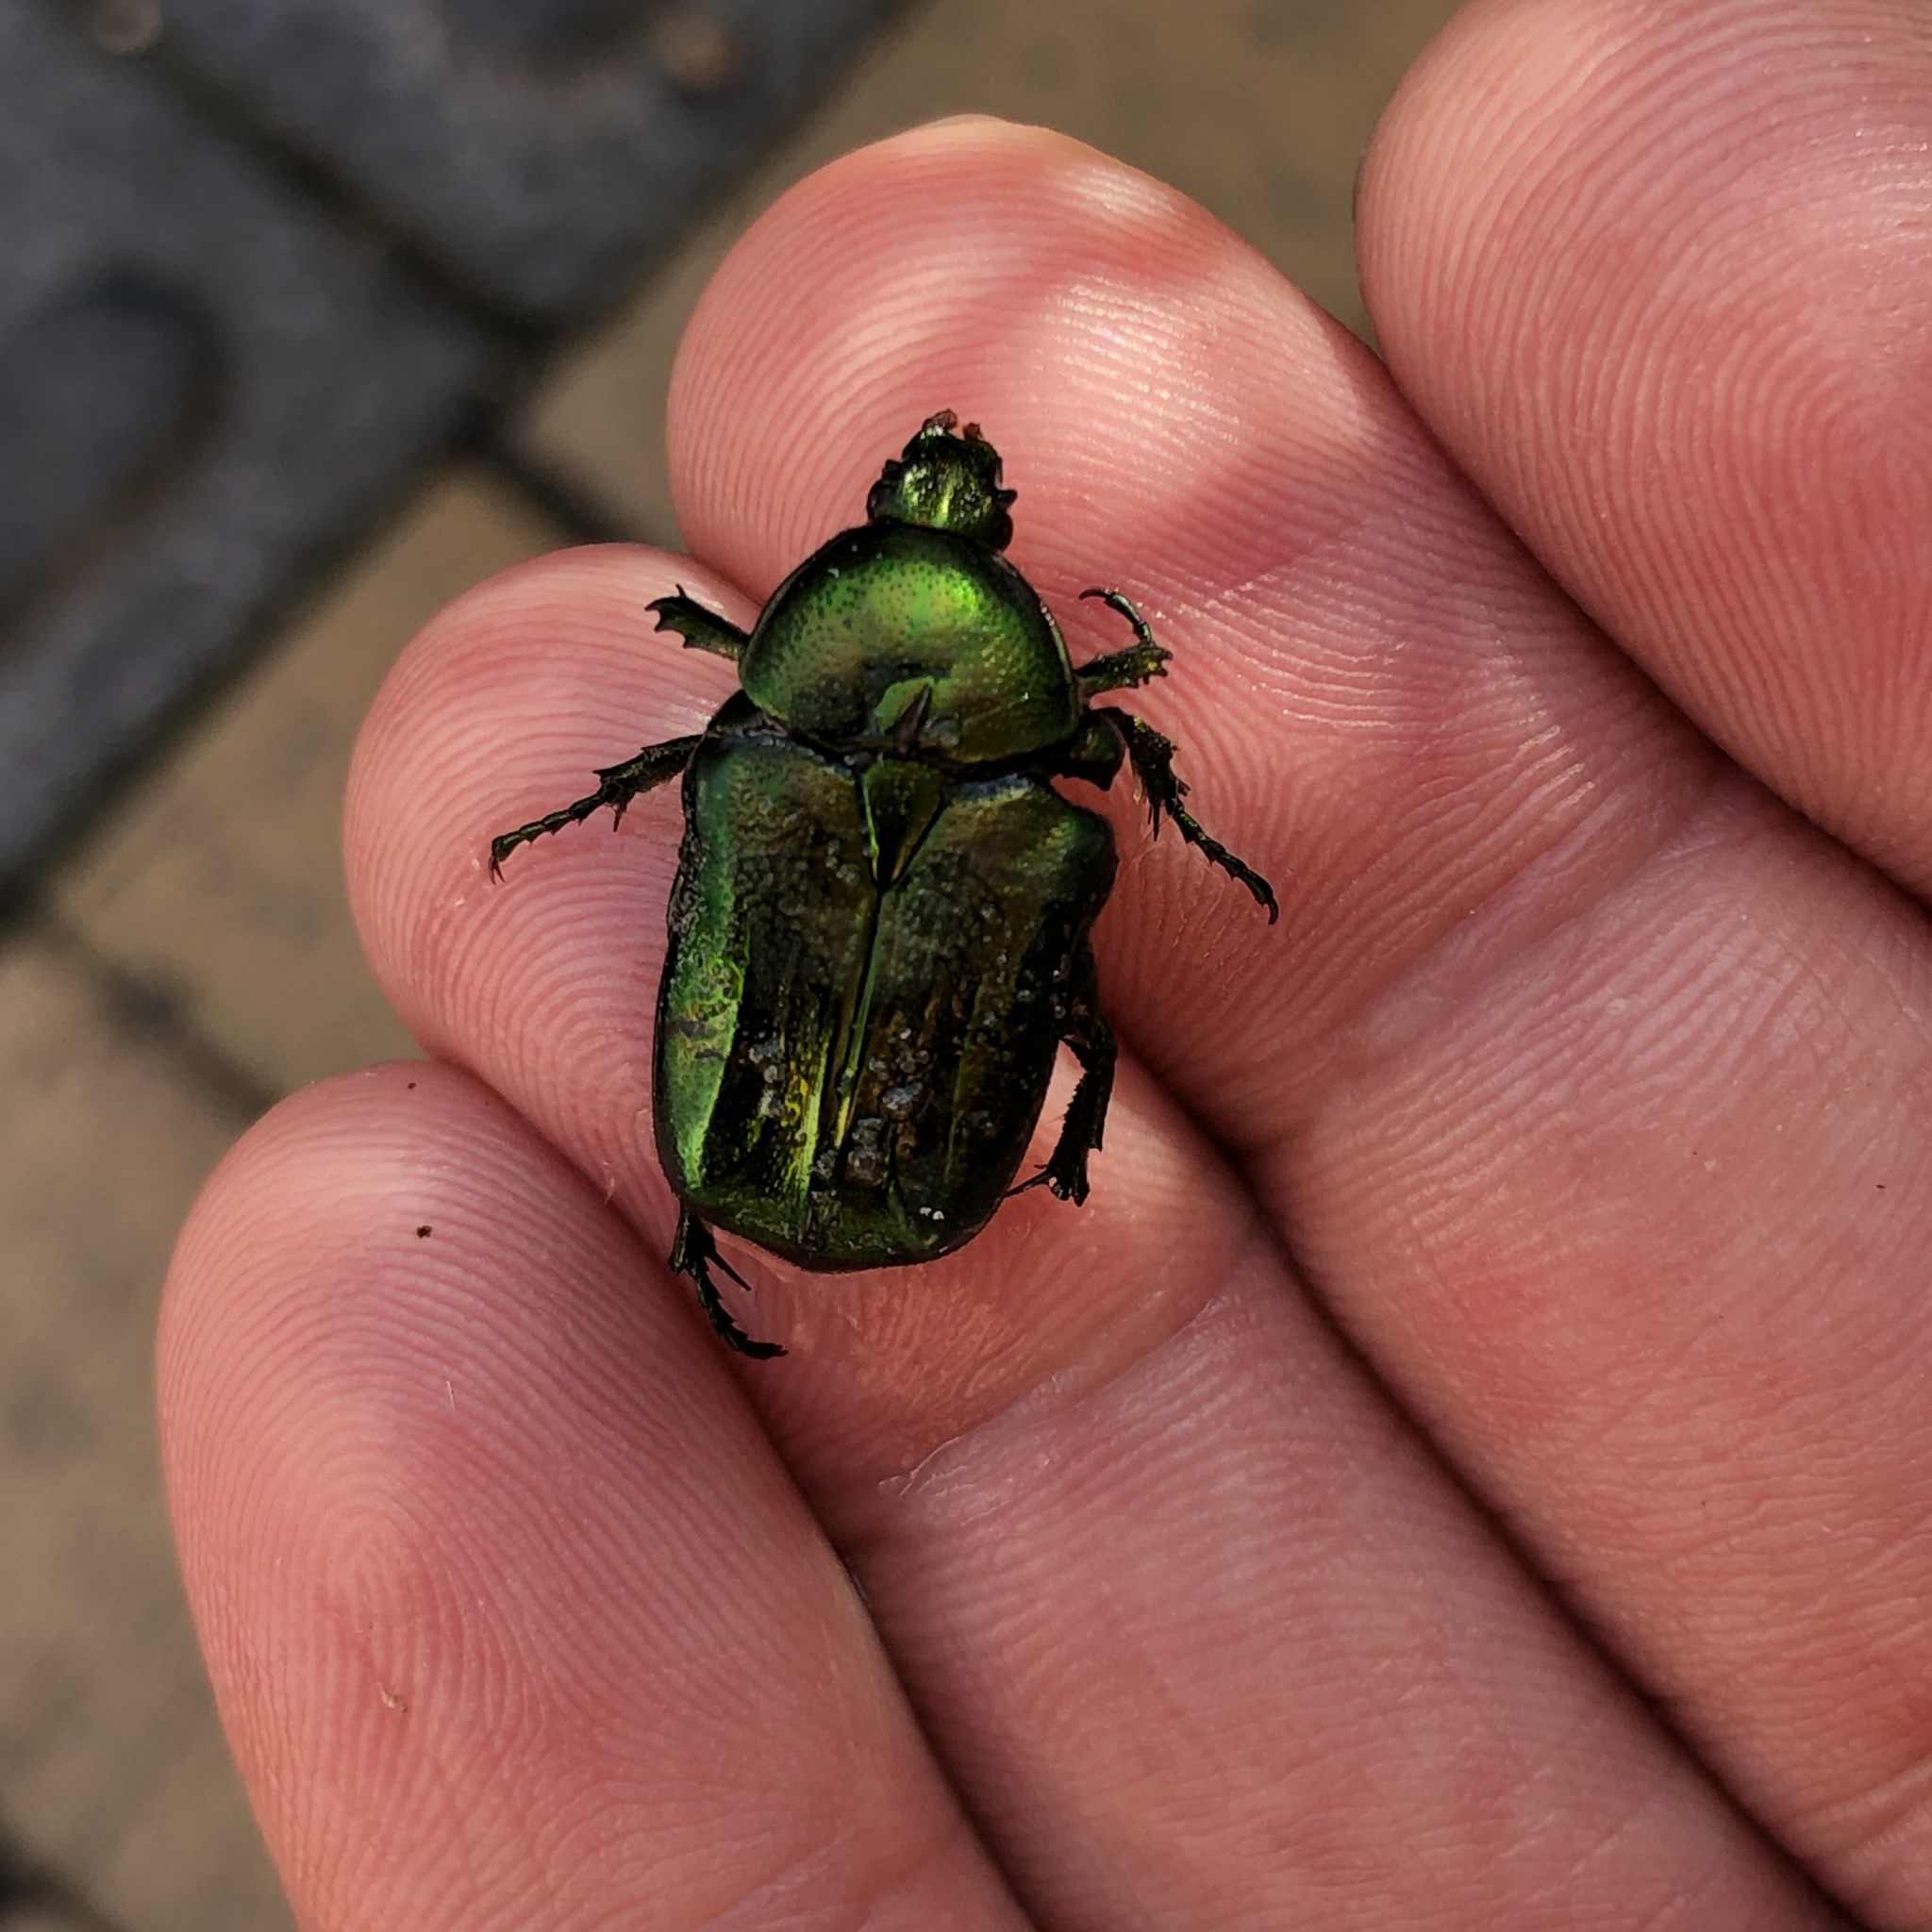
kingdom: Animalia
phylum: Arthropoda
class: Insecta
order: Coleoptera
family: Scarabaeidae
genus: Cetonia
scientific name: Cetonia aurata
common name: Rose chafer
